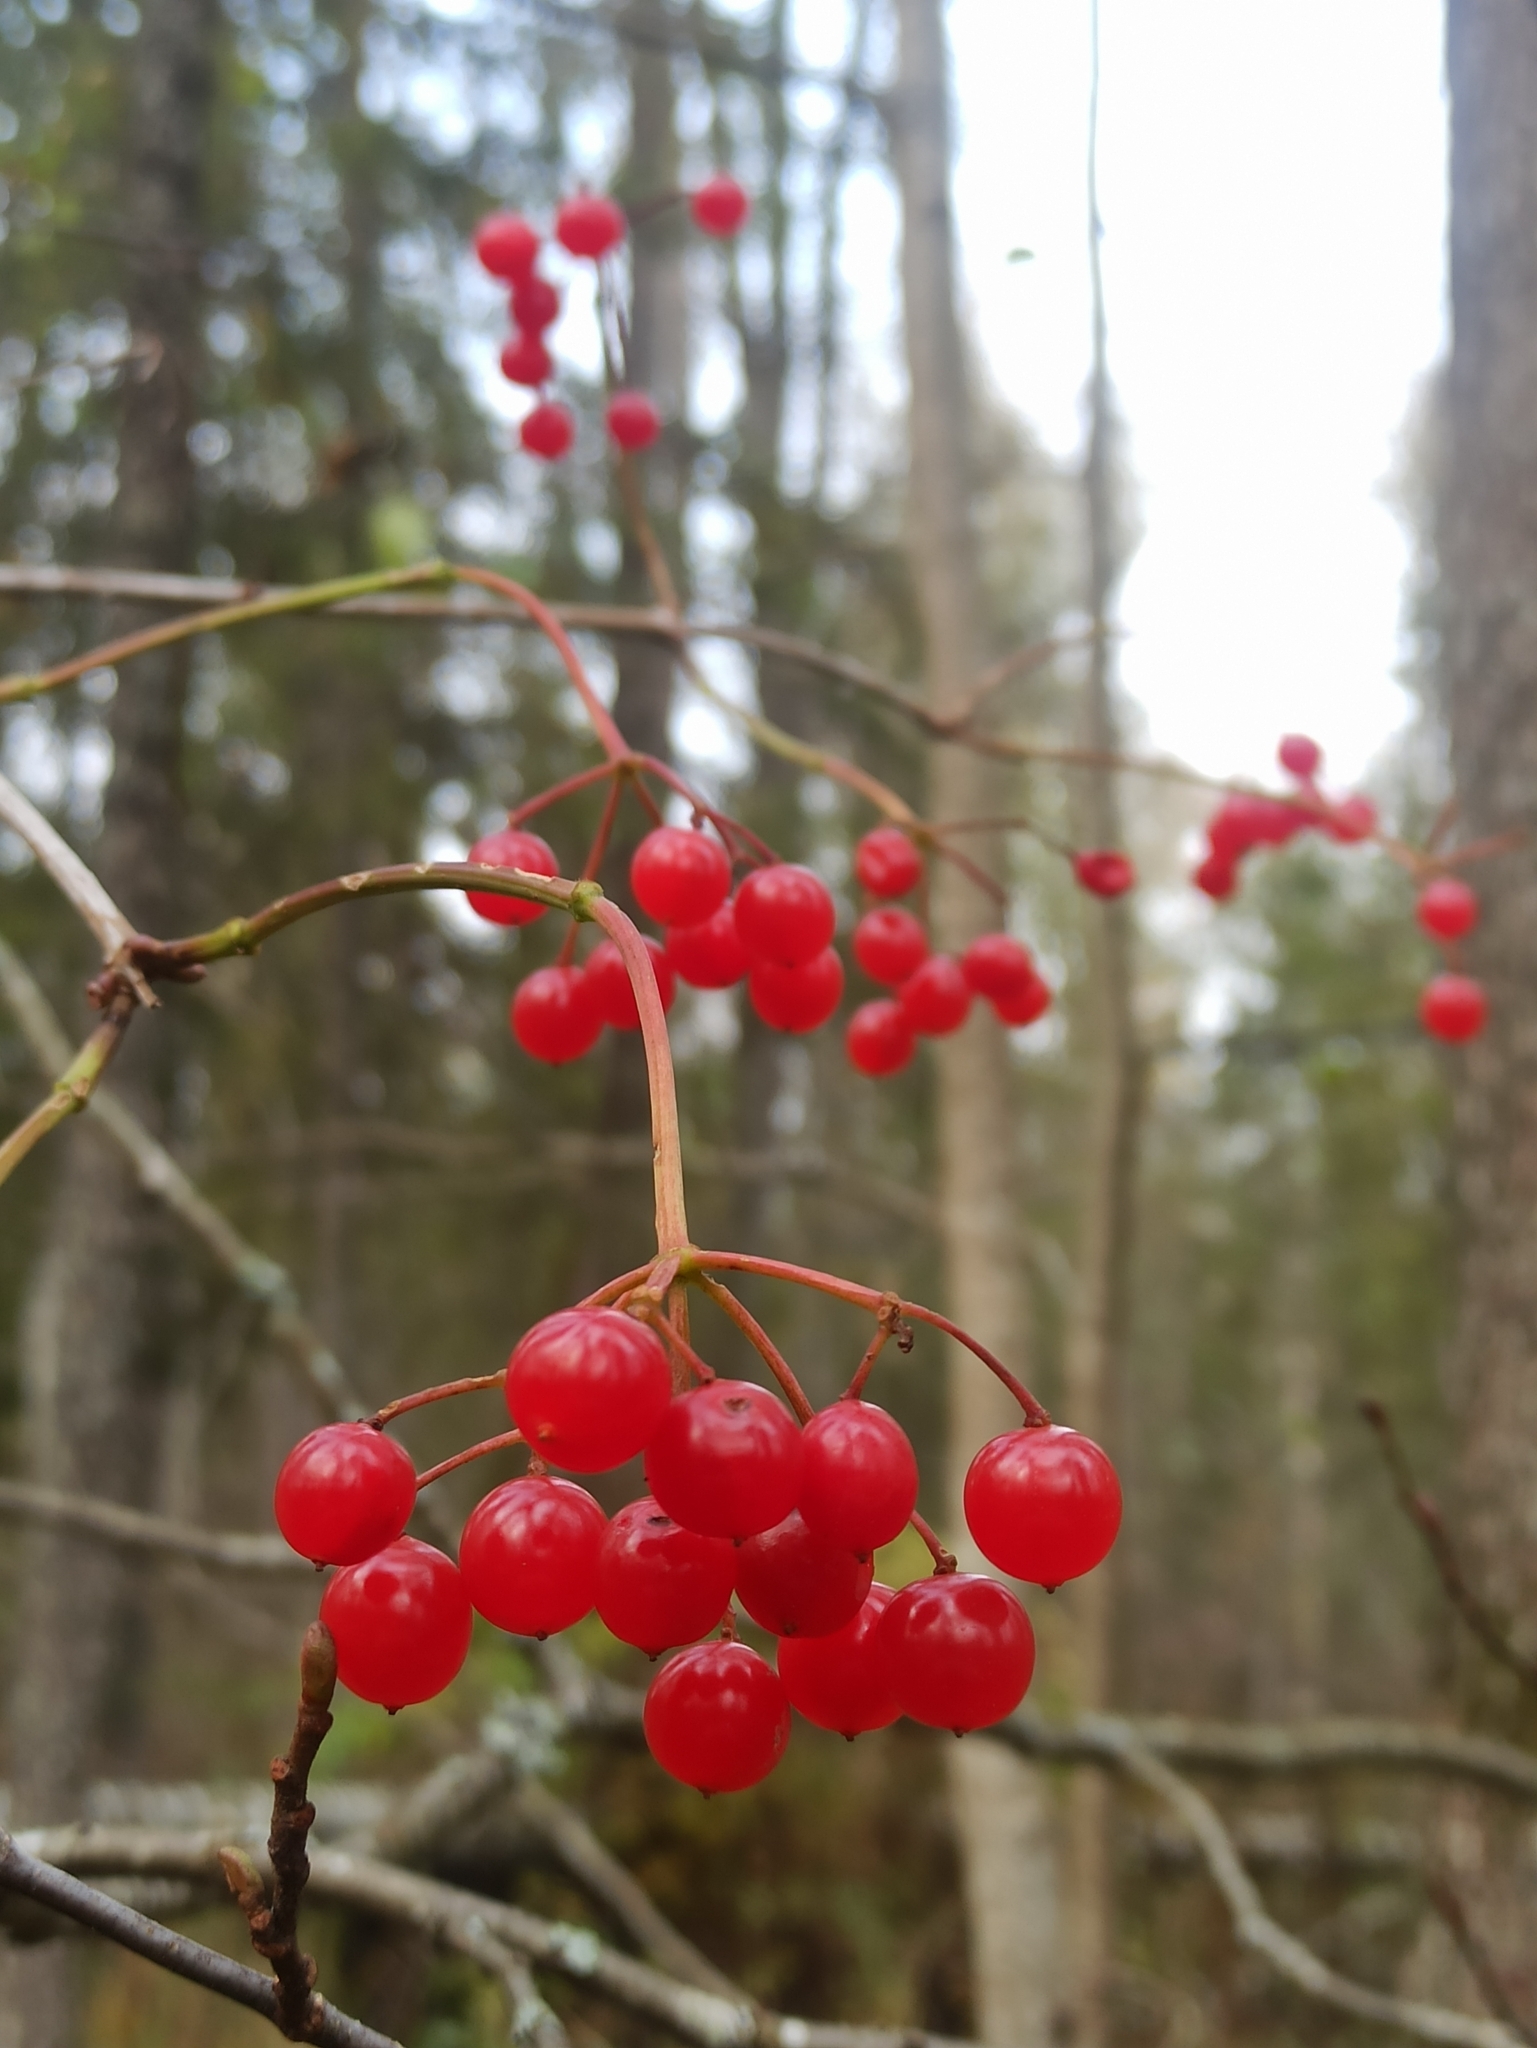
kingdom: Plantae
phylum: Tracheophyta
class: Magnoliopsida
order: Dipsacales
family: Viburnaceae
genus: Viburnum
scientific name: Viburnum opulus
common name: Guelder-rose
